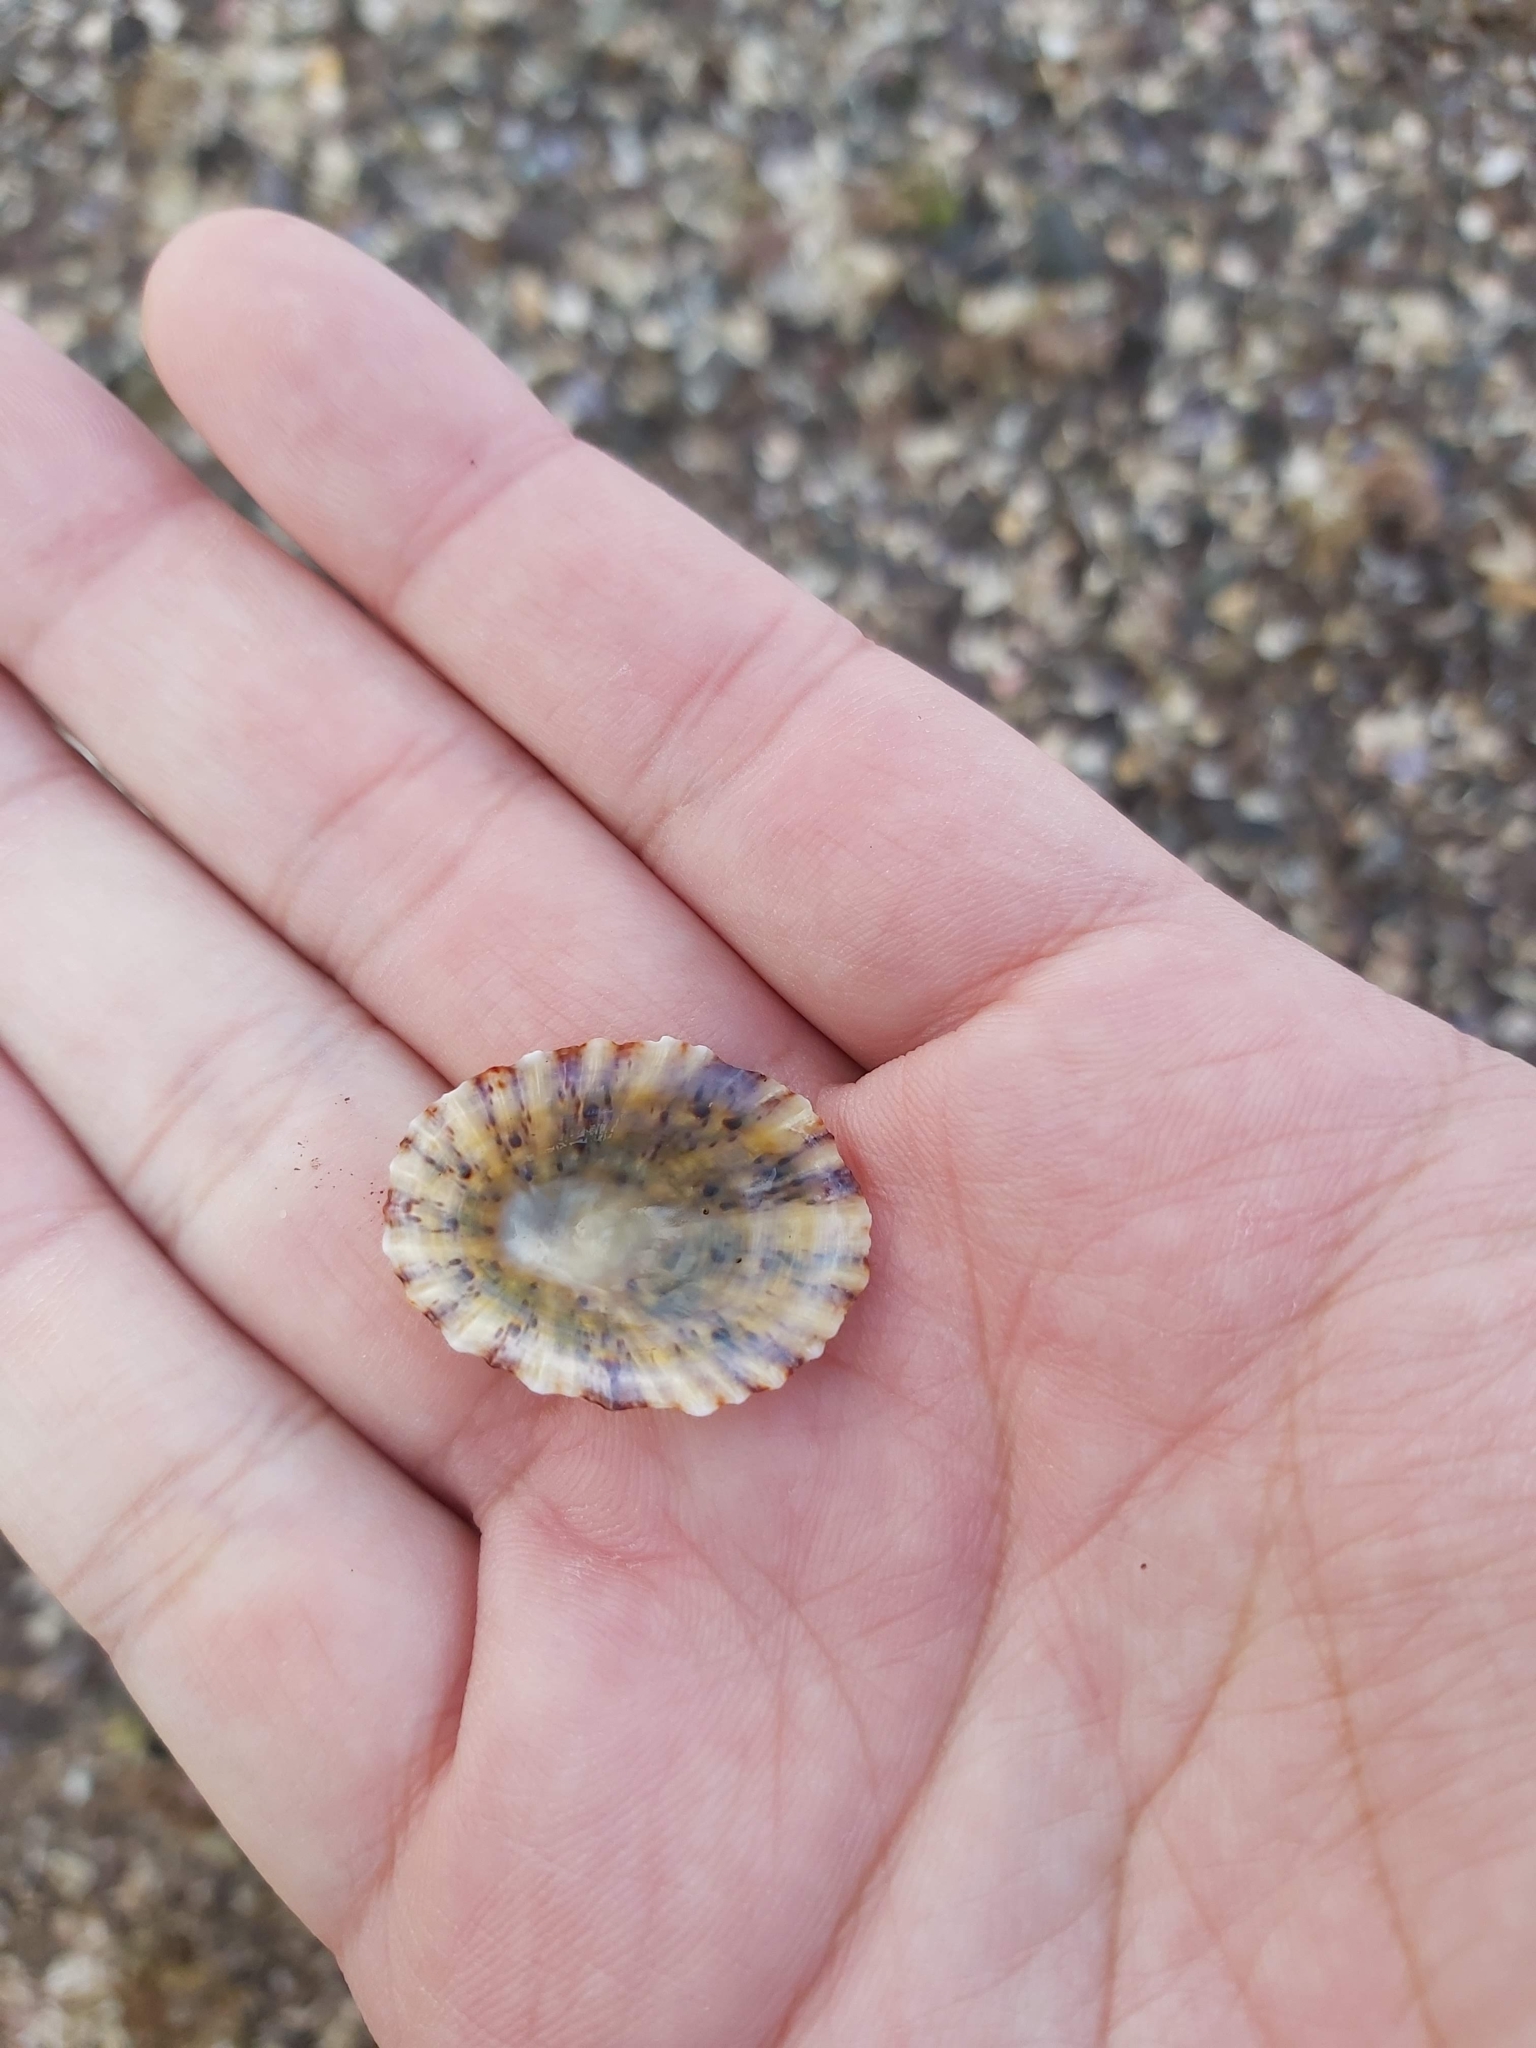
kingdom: Animalia
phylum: Mollusca
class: Gastropoda
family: Nacellidae
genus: Cellana
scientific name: Cellana tramoserica
